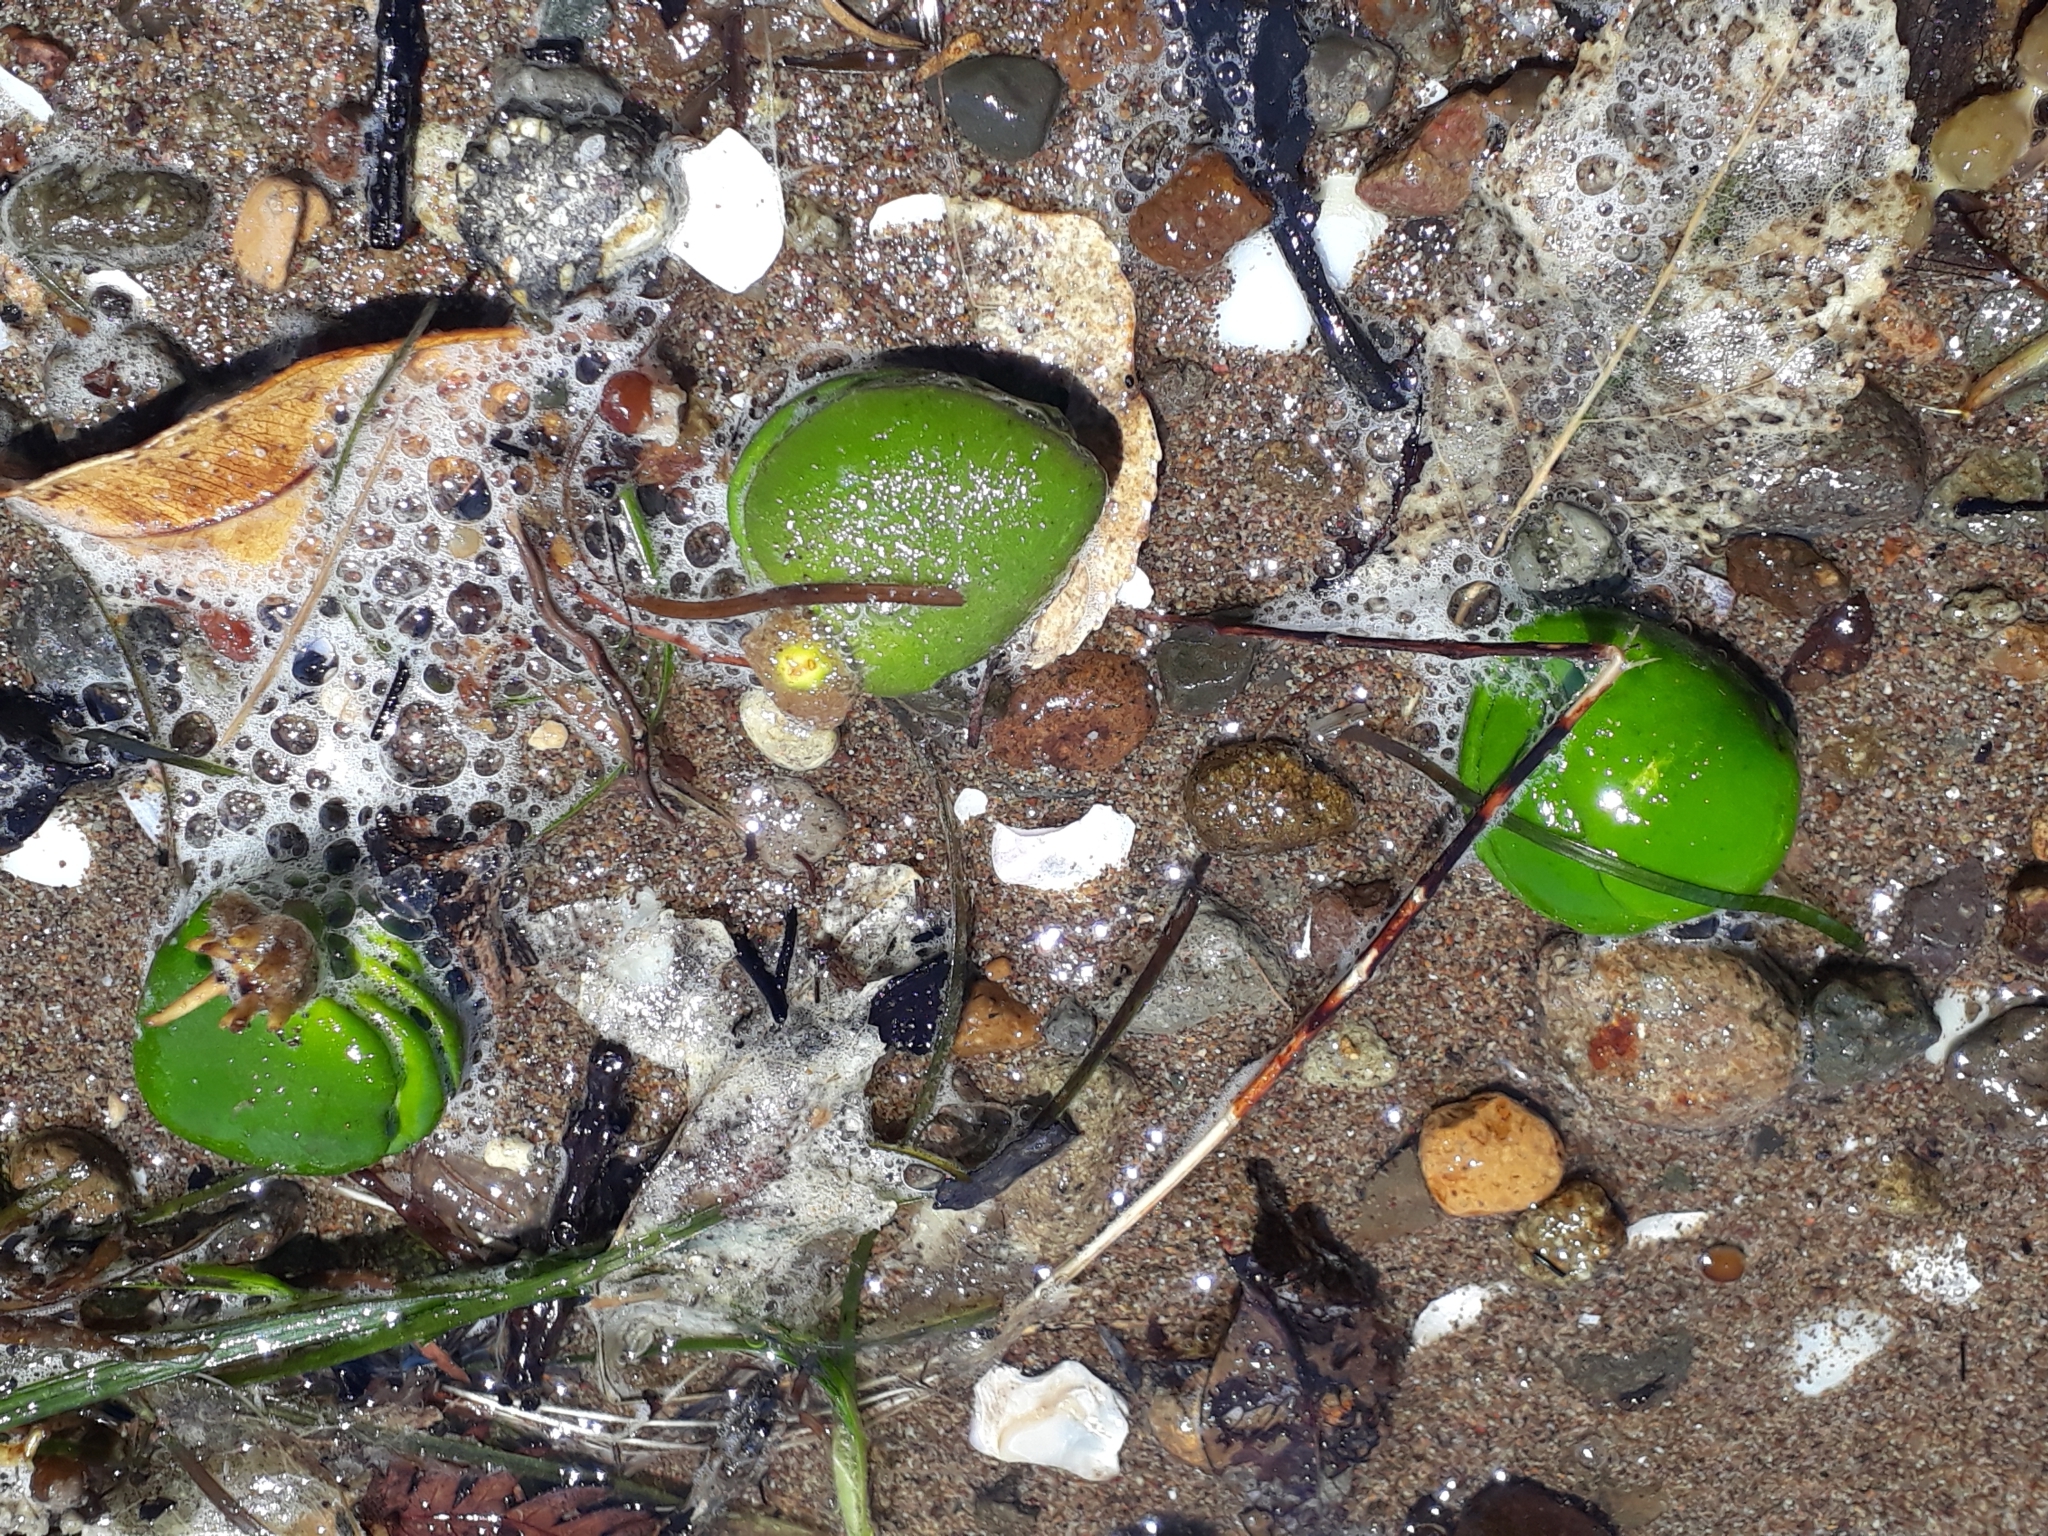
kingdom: Plantae
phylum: Tracheophyta
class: Magnoliopsida
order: Lamiales
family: Acanthaceae
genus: Avicennia
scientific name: Avicennia marina
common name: Gray mangrove
